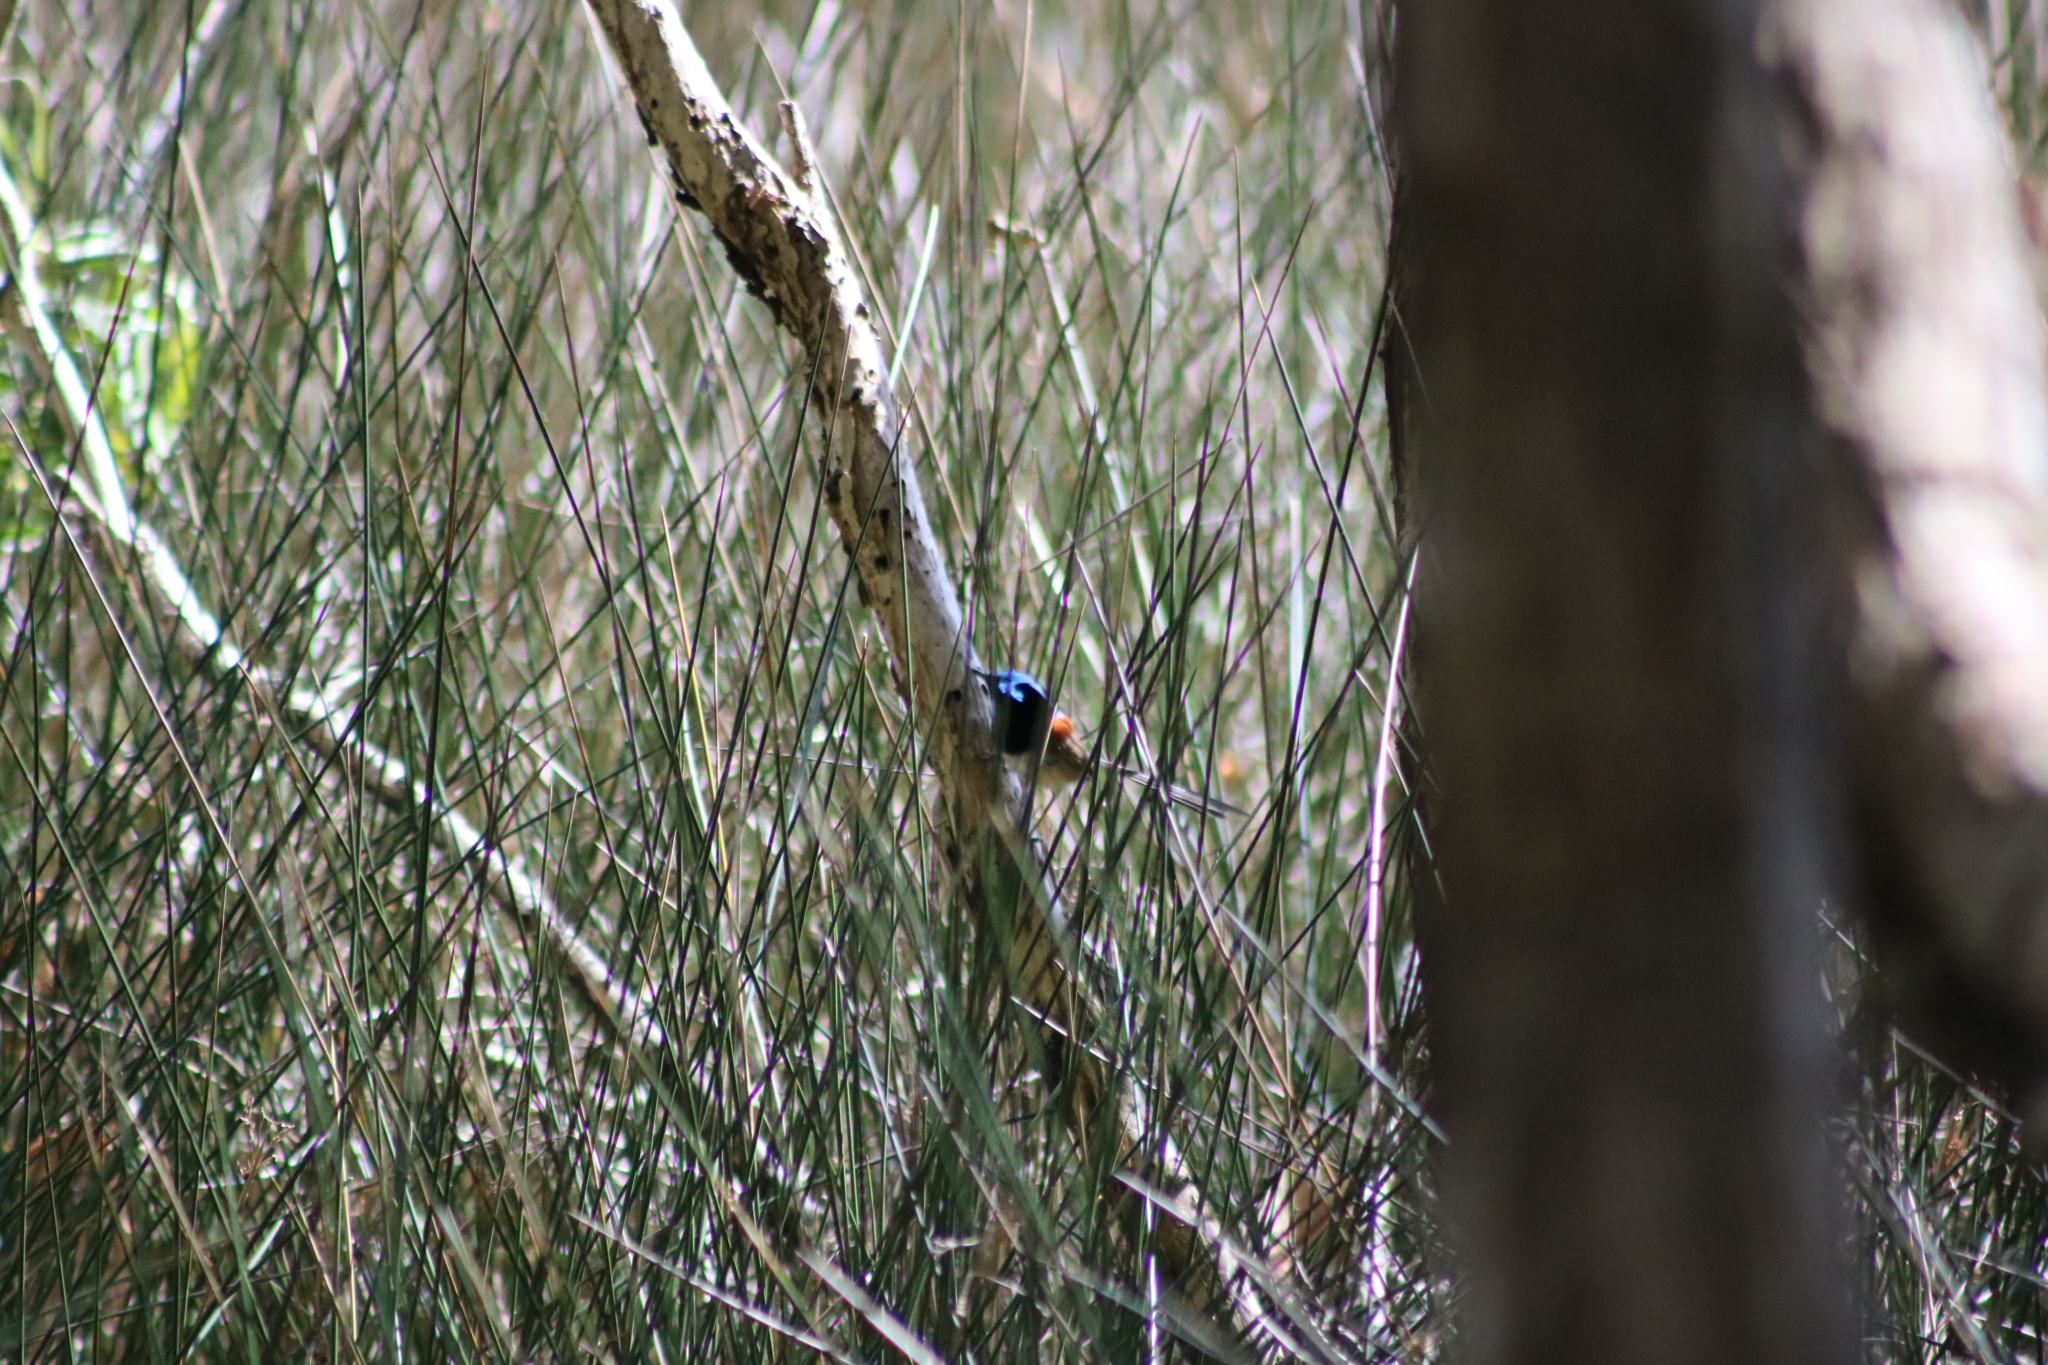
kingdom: Animalia
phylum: Chordata
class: Aves
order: Passeriformes
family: Maluridae
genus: Malurus
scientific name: Malurus lamberti
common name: Variegated fairywren
